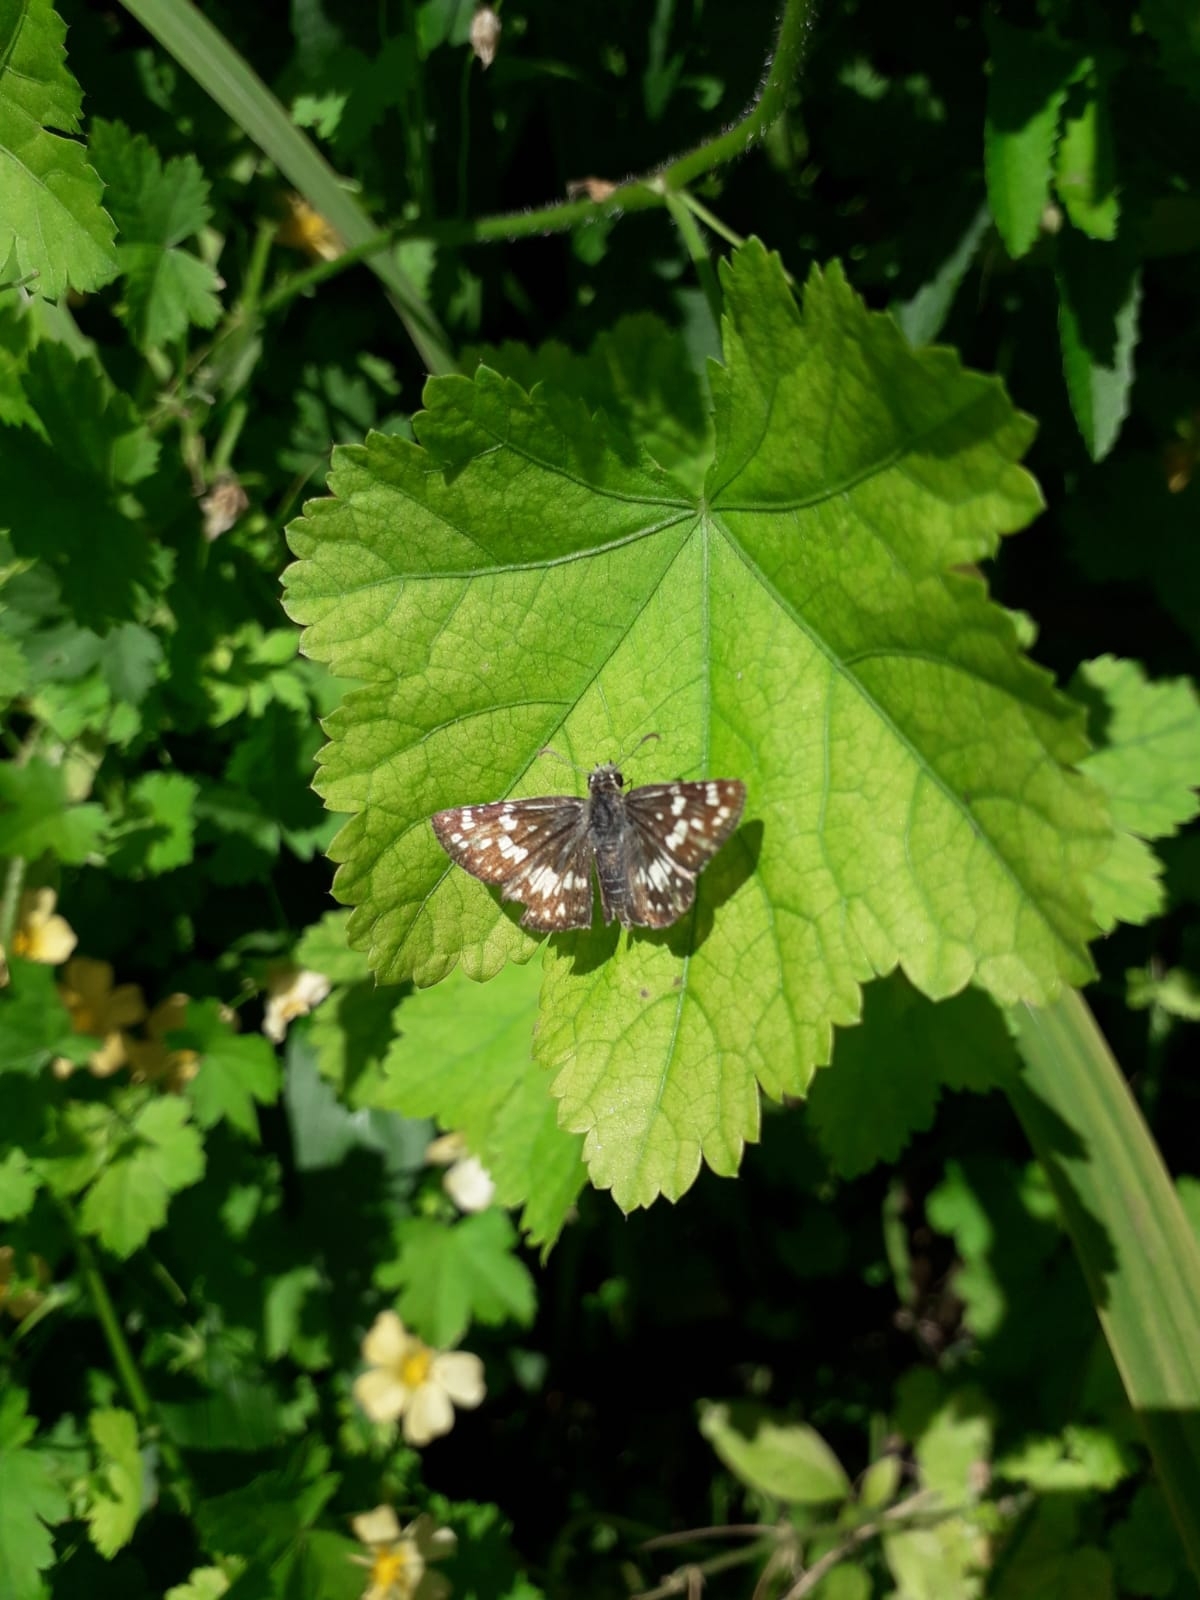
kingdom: Animalia
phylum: Arthropoda
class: Insecta
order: Lepidoptera
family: Hesperiidae
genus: Burnsius
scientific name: Burnsius orcynoides
